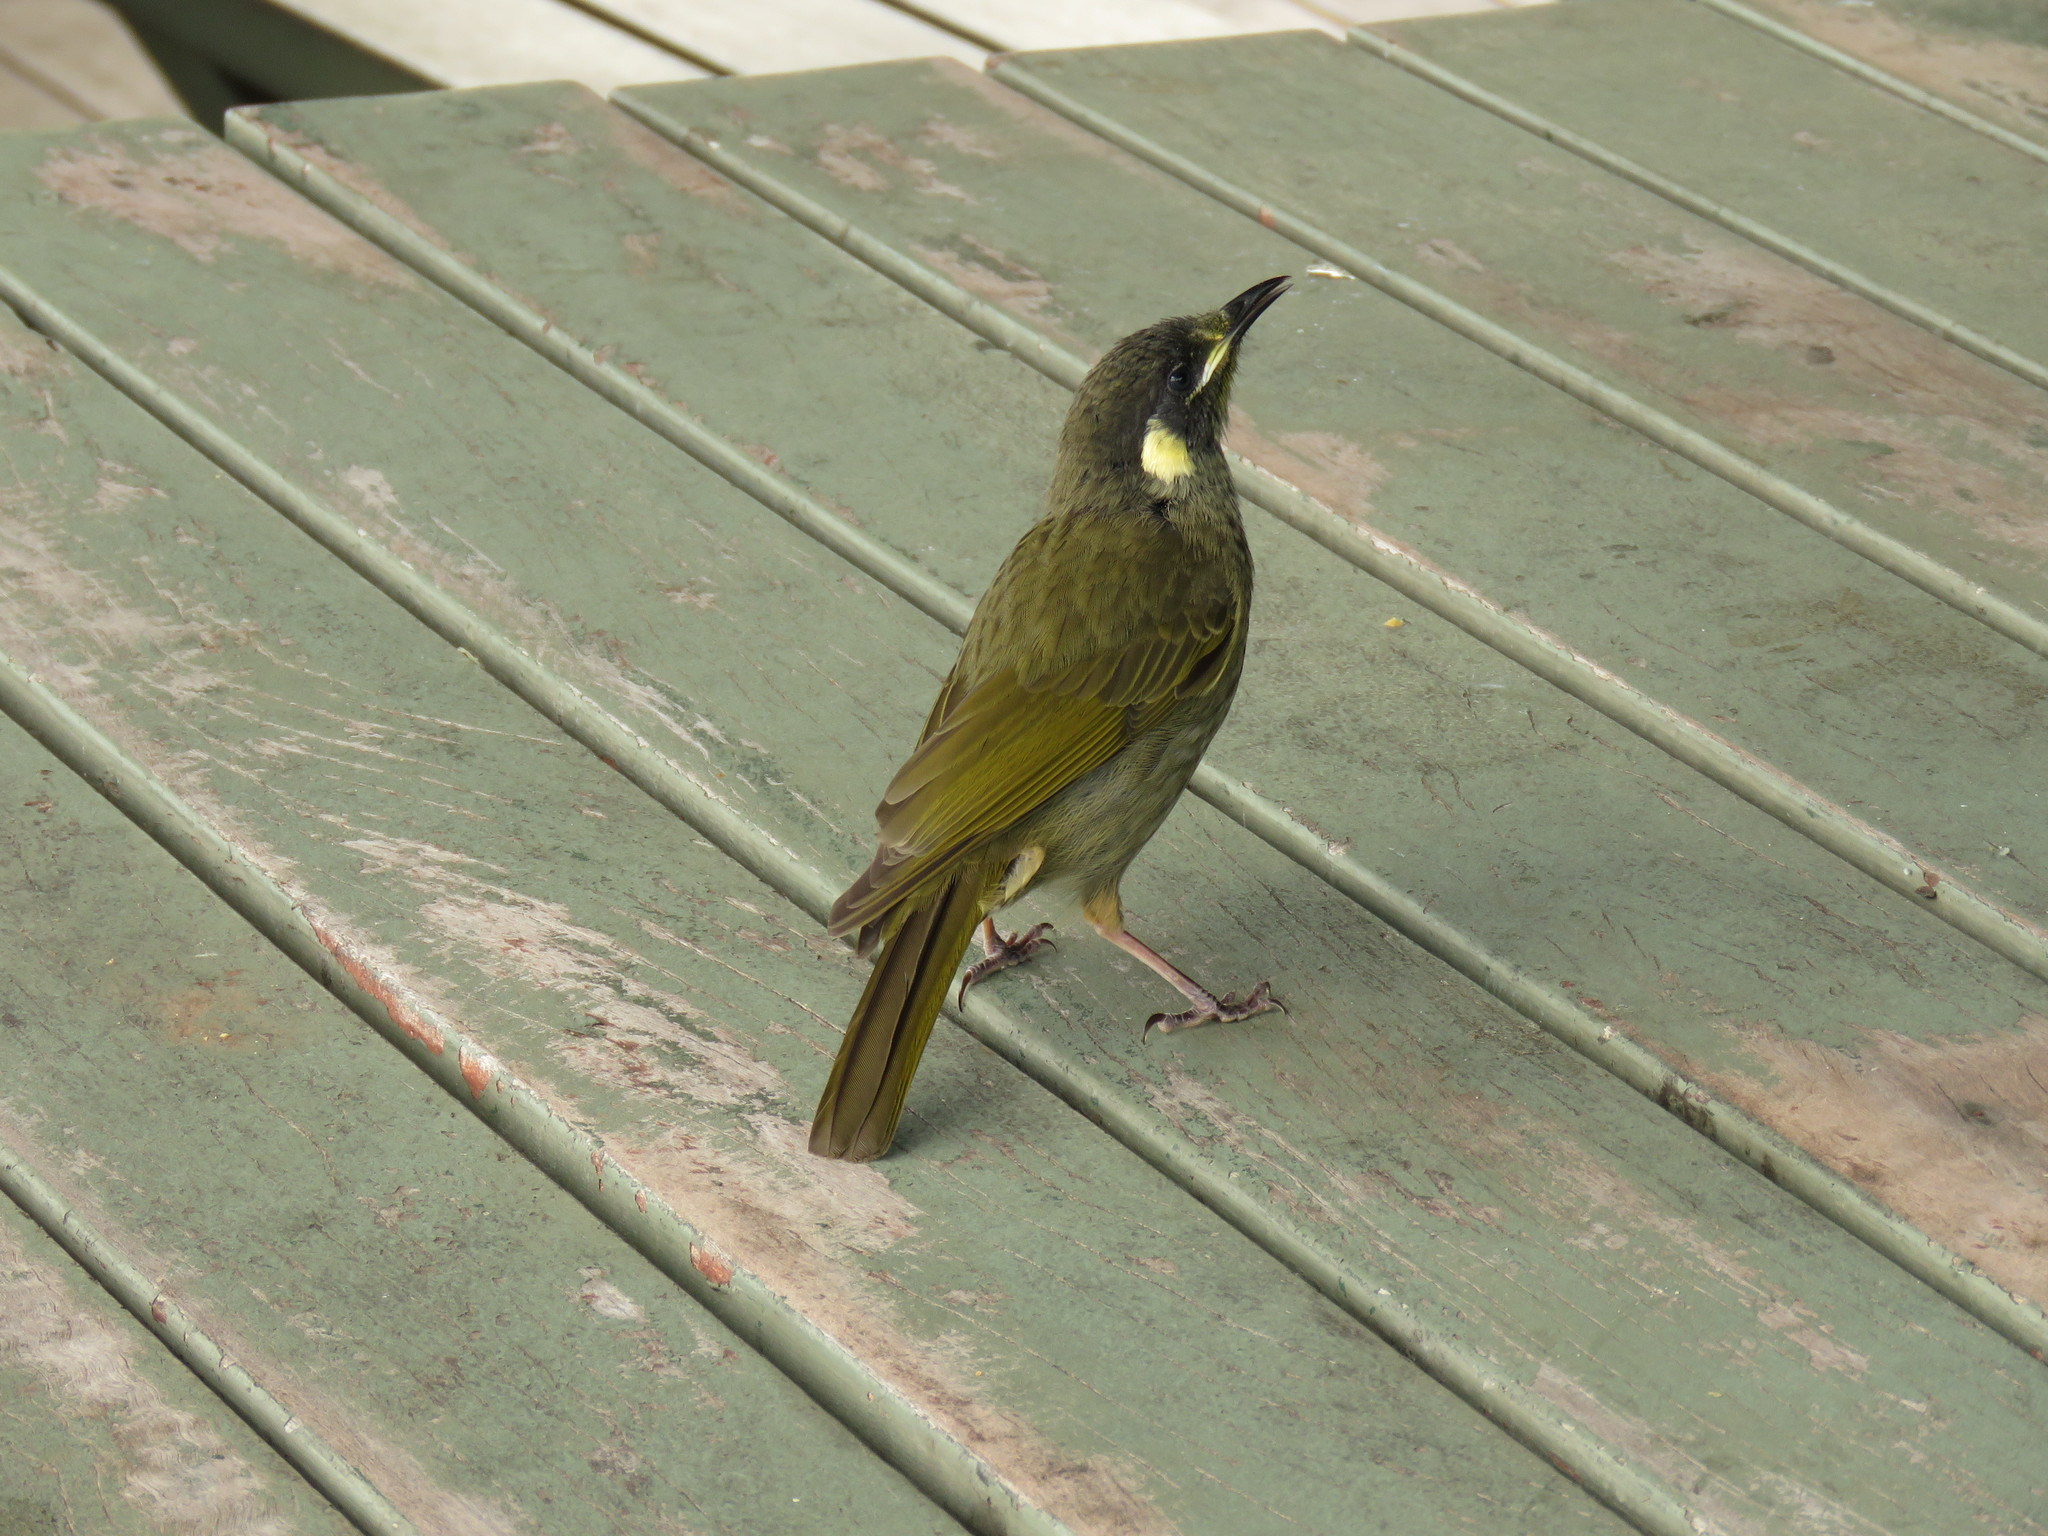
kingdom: Animalia
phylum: Chordata
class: Aves
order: Passeriformes
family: Meliphagidae
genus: Meliphaga
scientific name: Meliphaga lewinii
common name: Lewin's honeyeater
